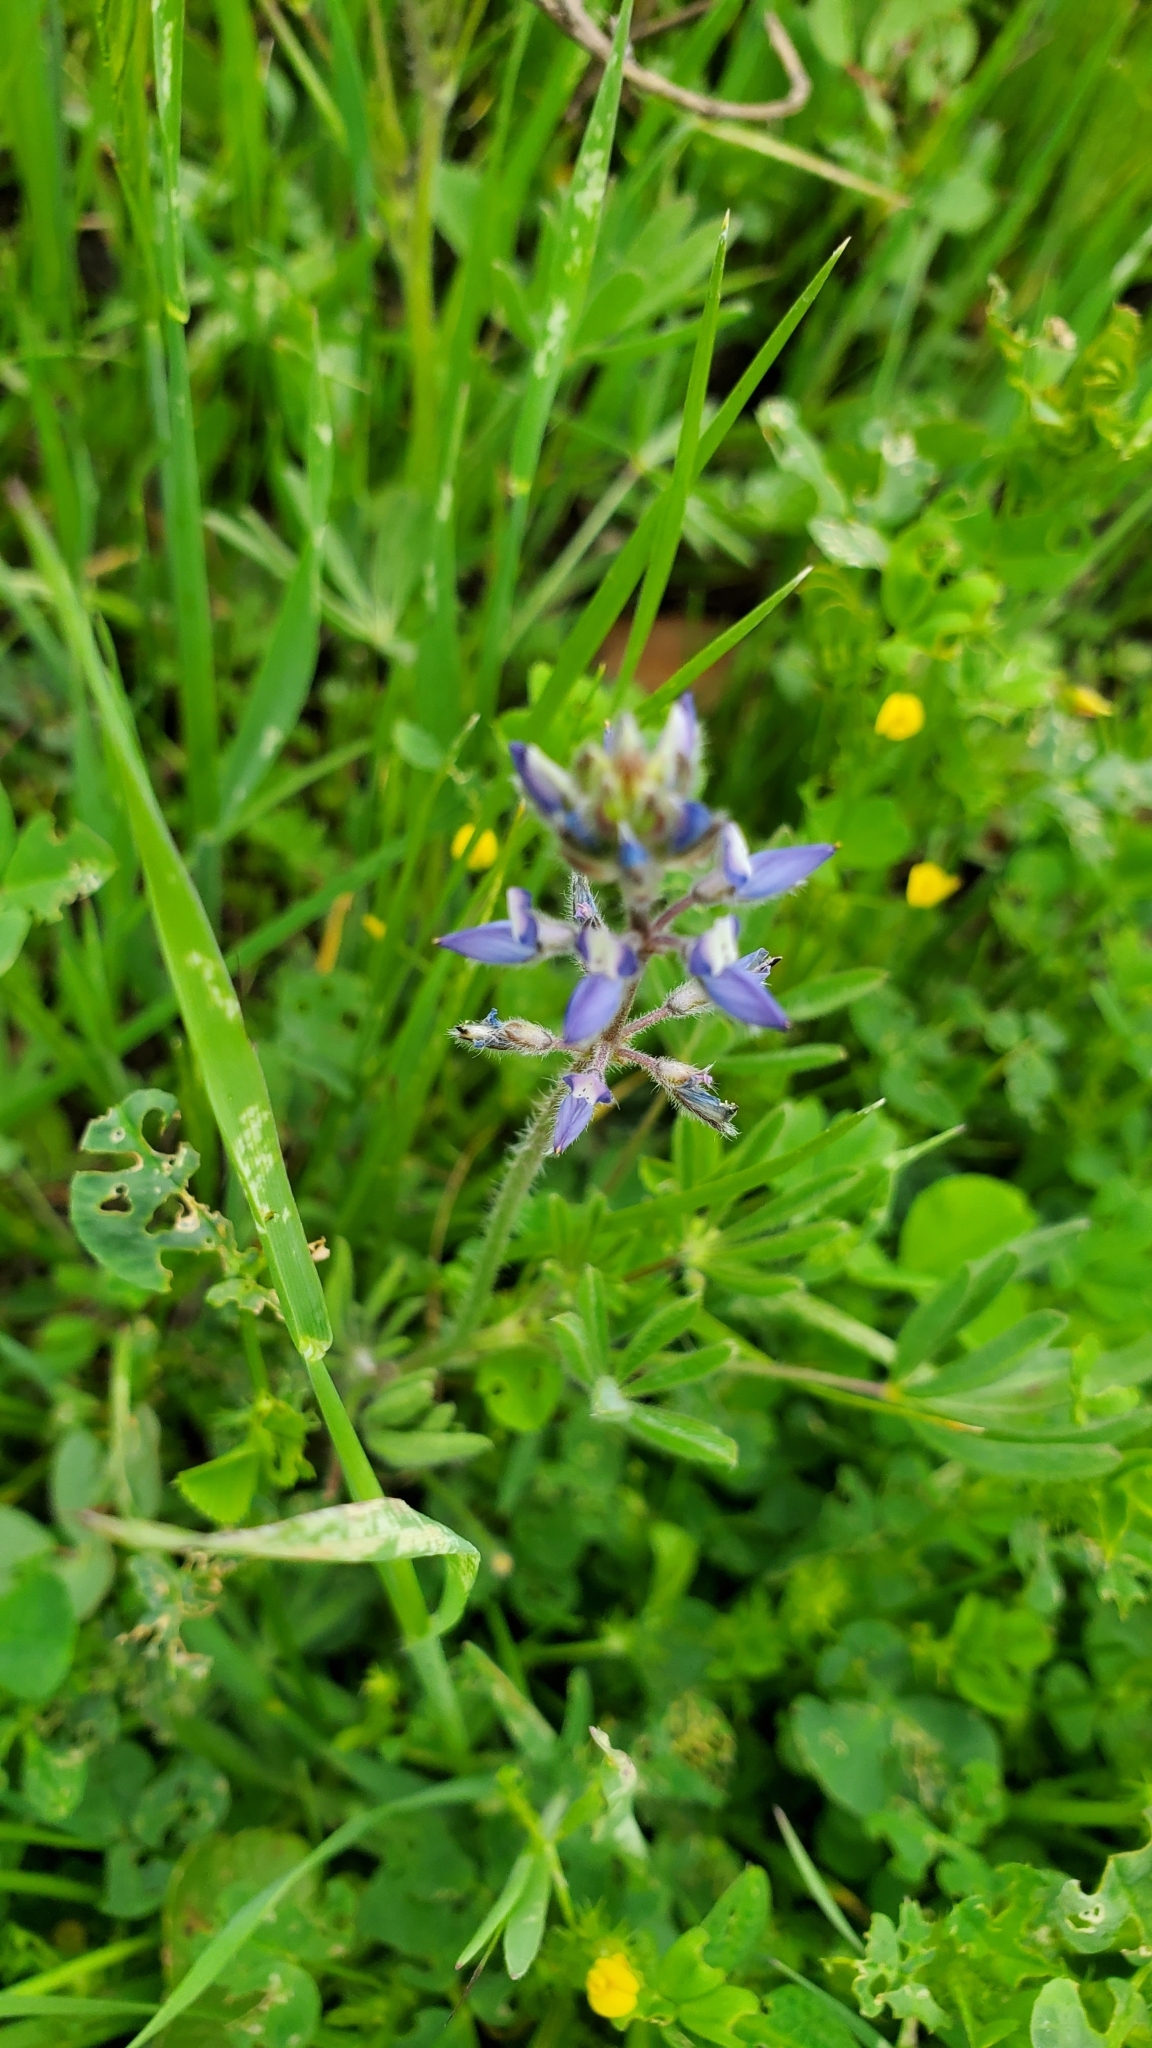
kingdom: Plantae
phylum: Tracheophyta
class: Magnoliopsida
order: Fabales
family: Fabaceae
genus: Lupinus
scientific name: Lupinus bicolor
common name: Miniature lupine
